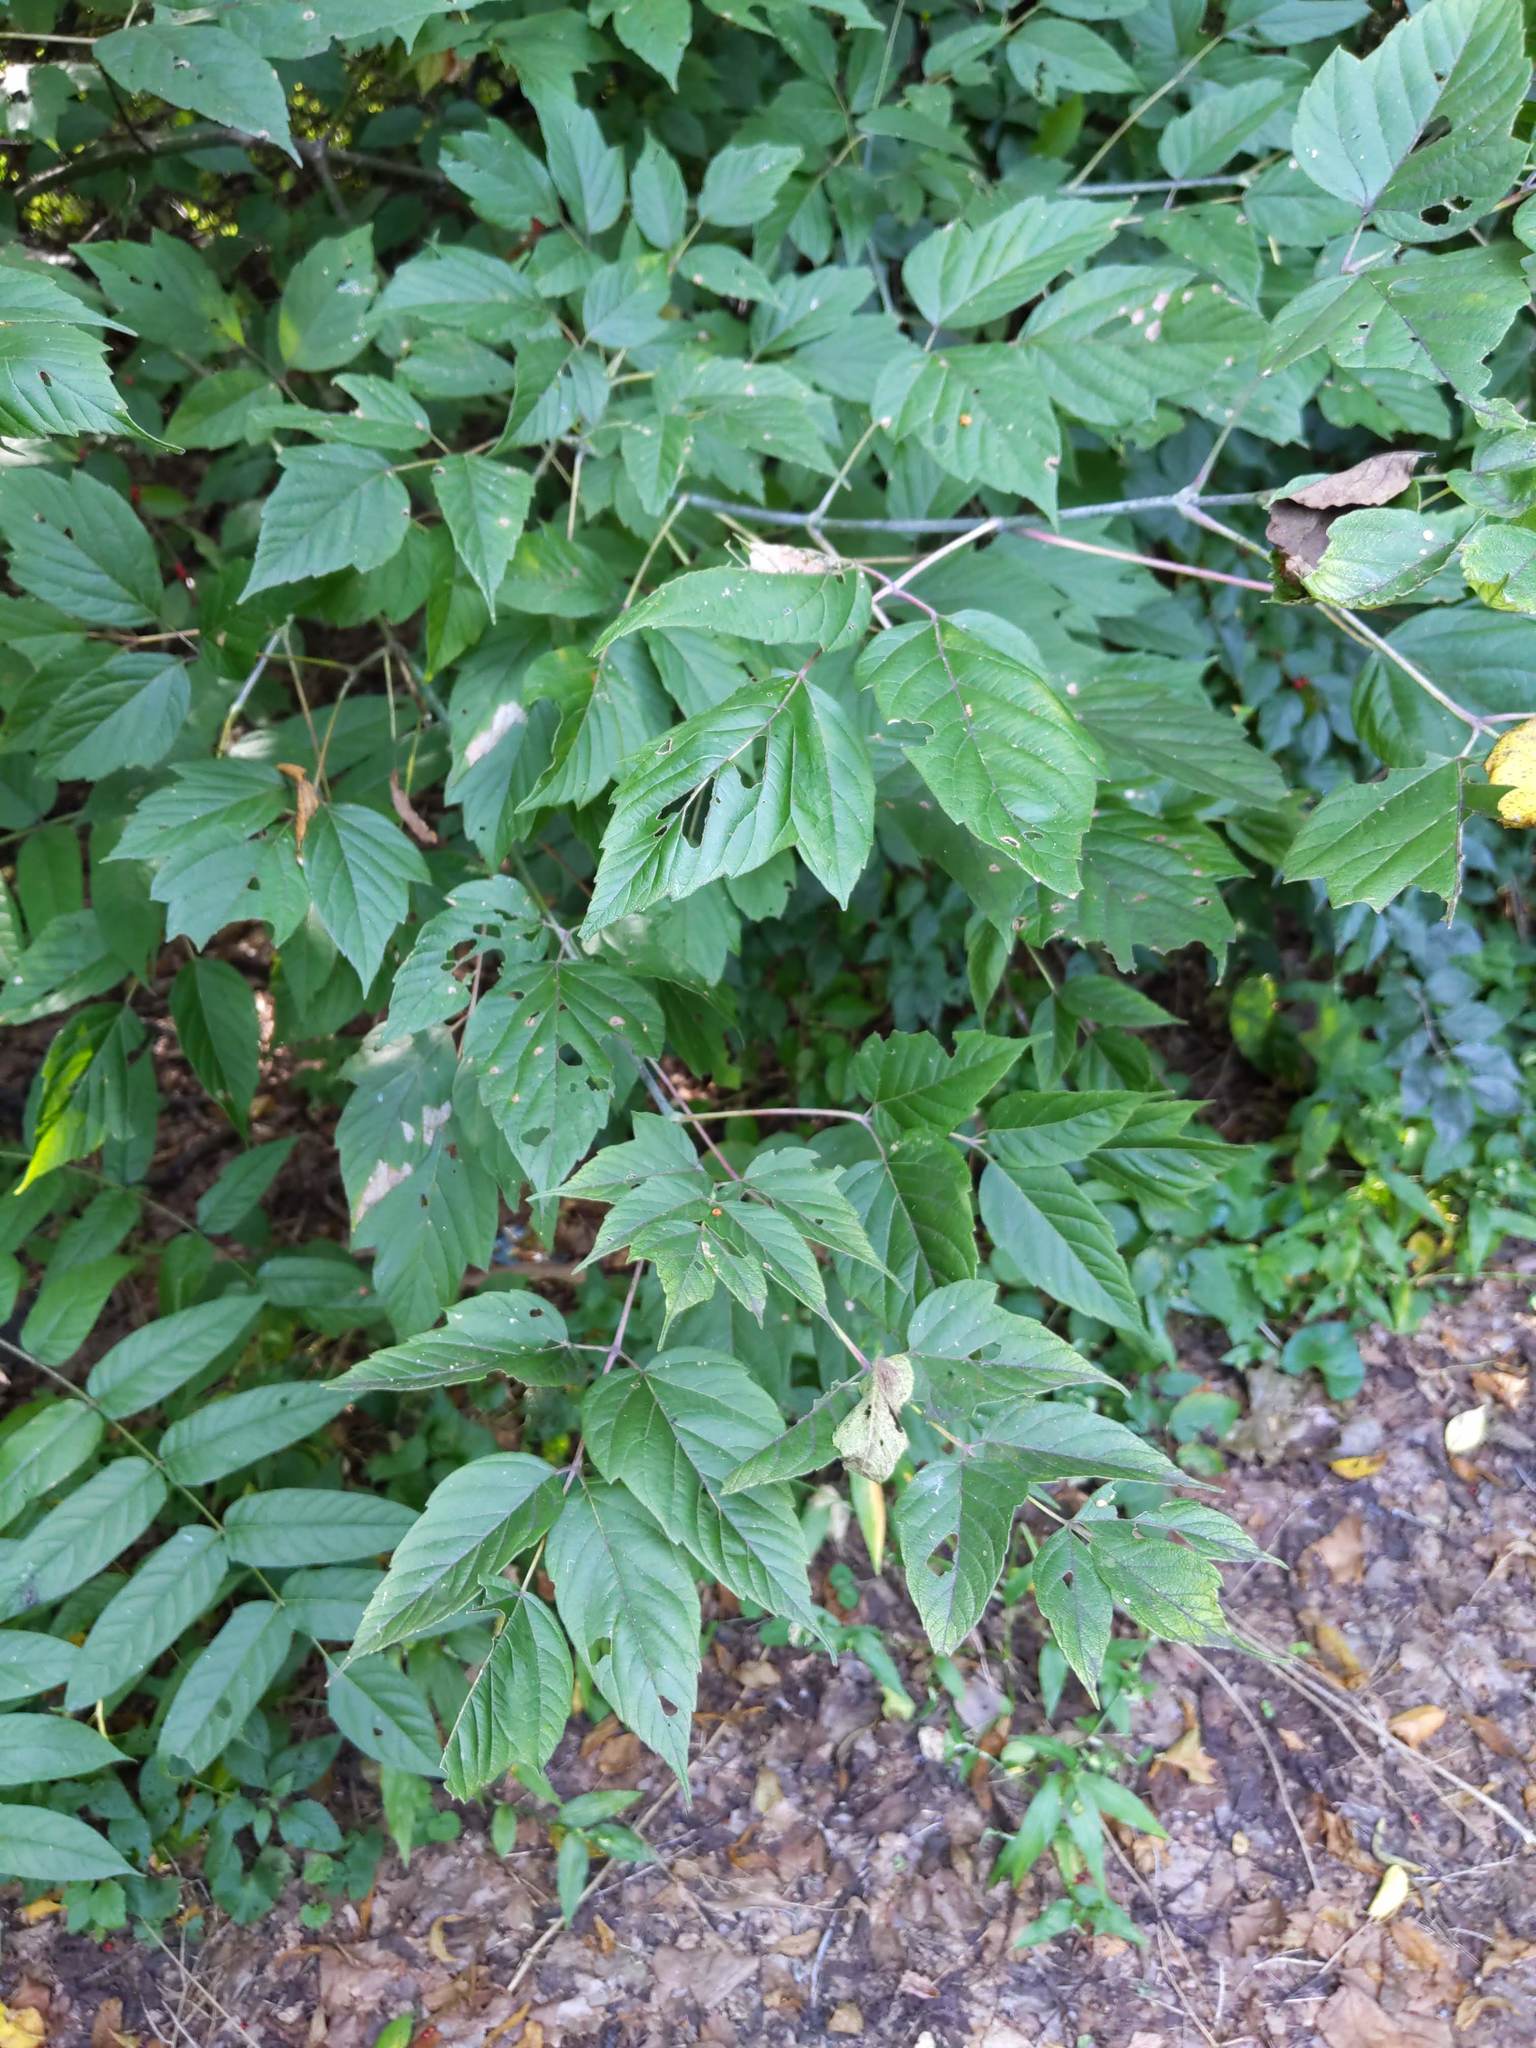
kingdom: Plantae
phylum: Tracheophyta
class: Magnoliopsida
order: Sapindales
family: Sapindaceae
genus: Acer
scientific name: Acer negundo
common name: Ashleaf maple
